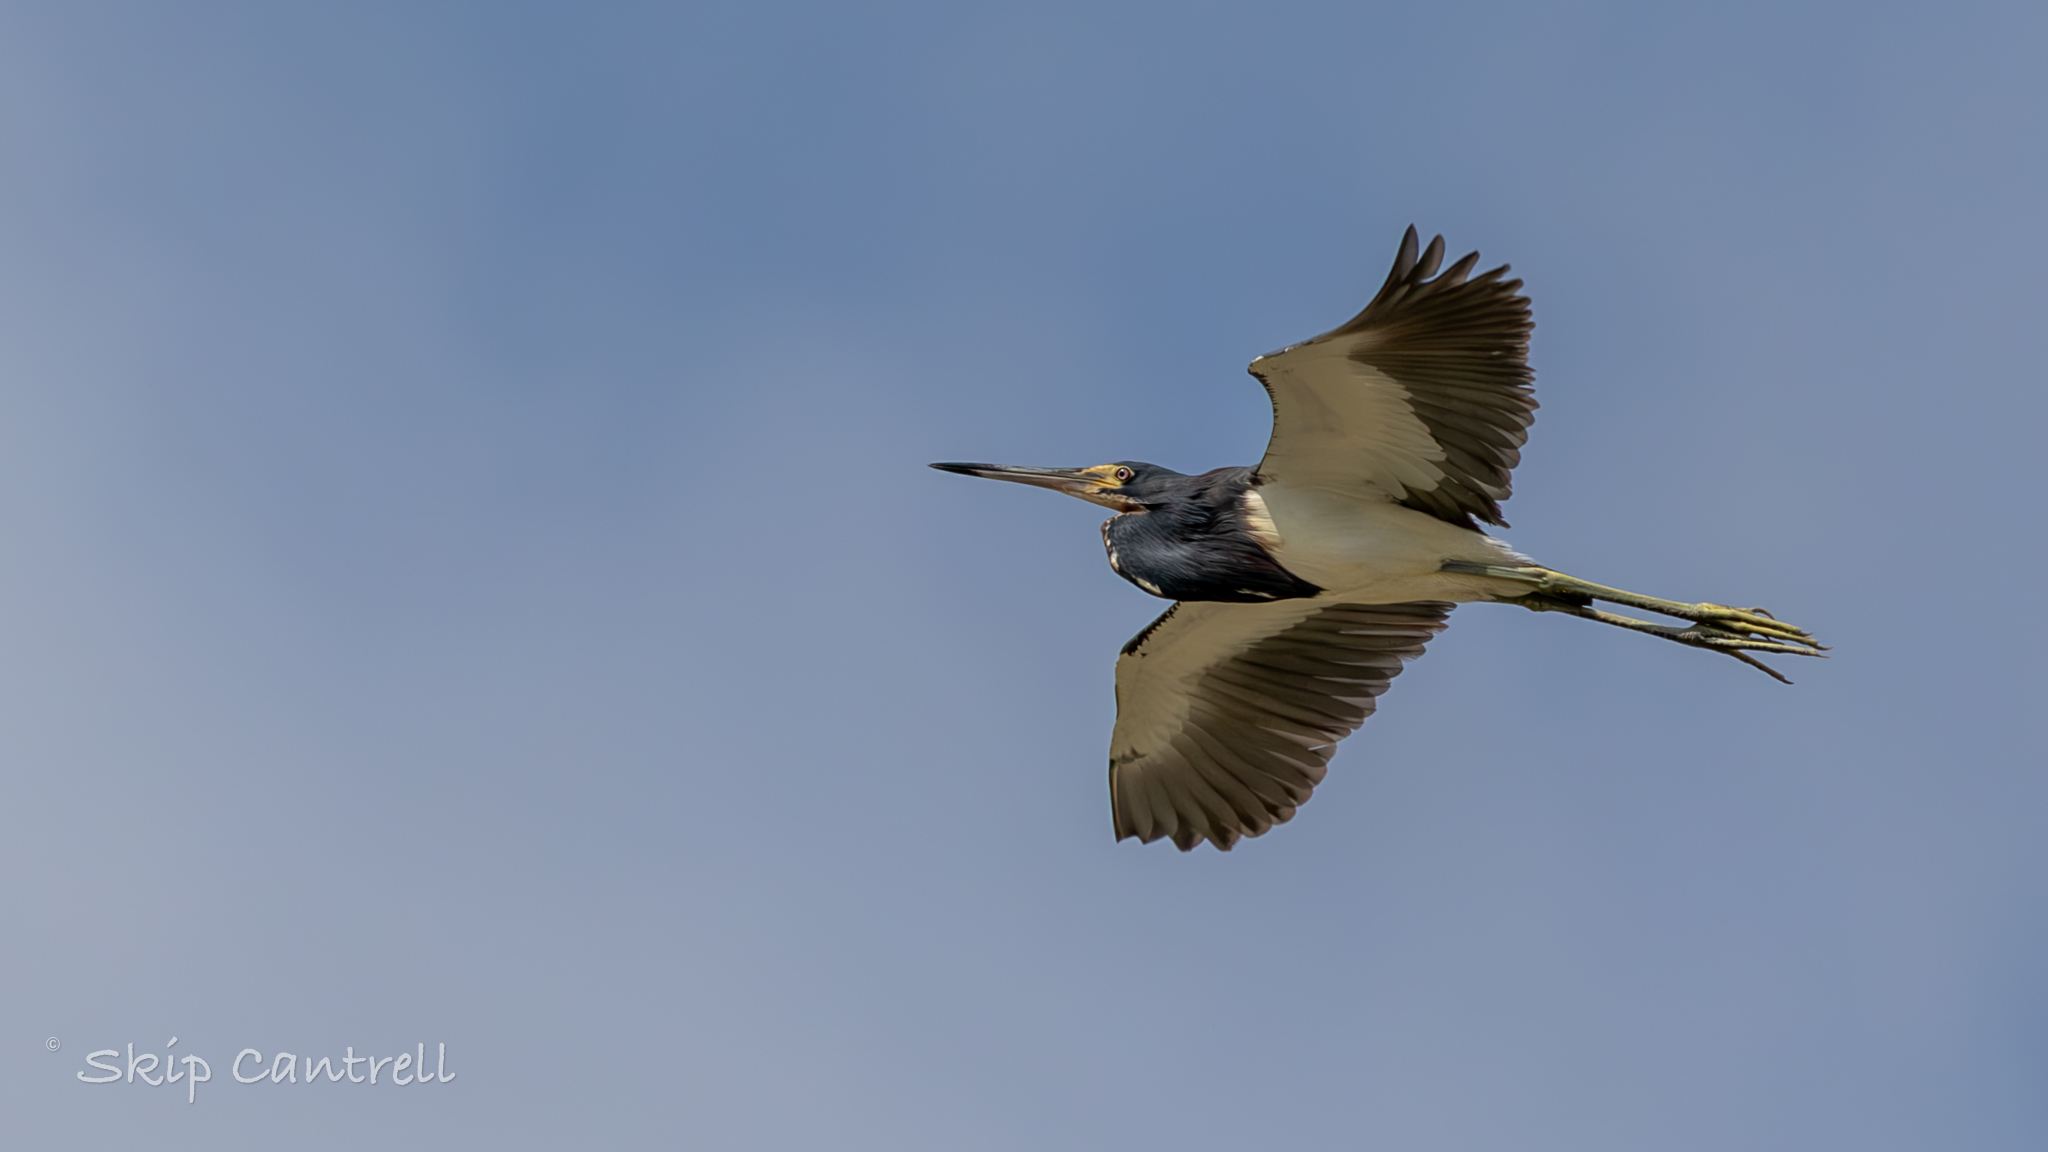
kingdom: Animalia
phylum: Chordata
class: Aves
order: Pelecaniformes
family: Ardeidae
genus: Egretta
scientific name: Egretta tricolor
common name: Tricolored heron
